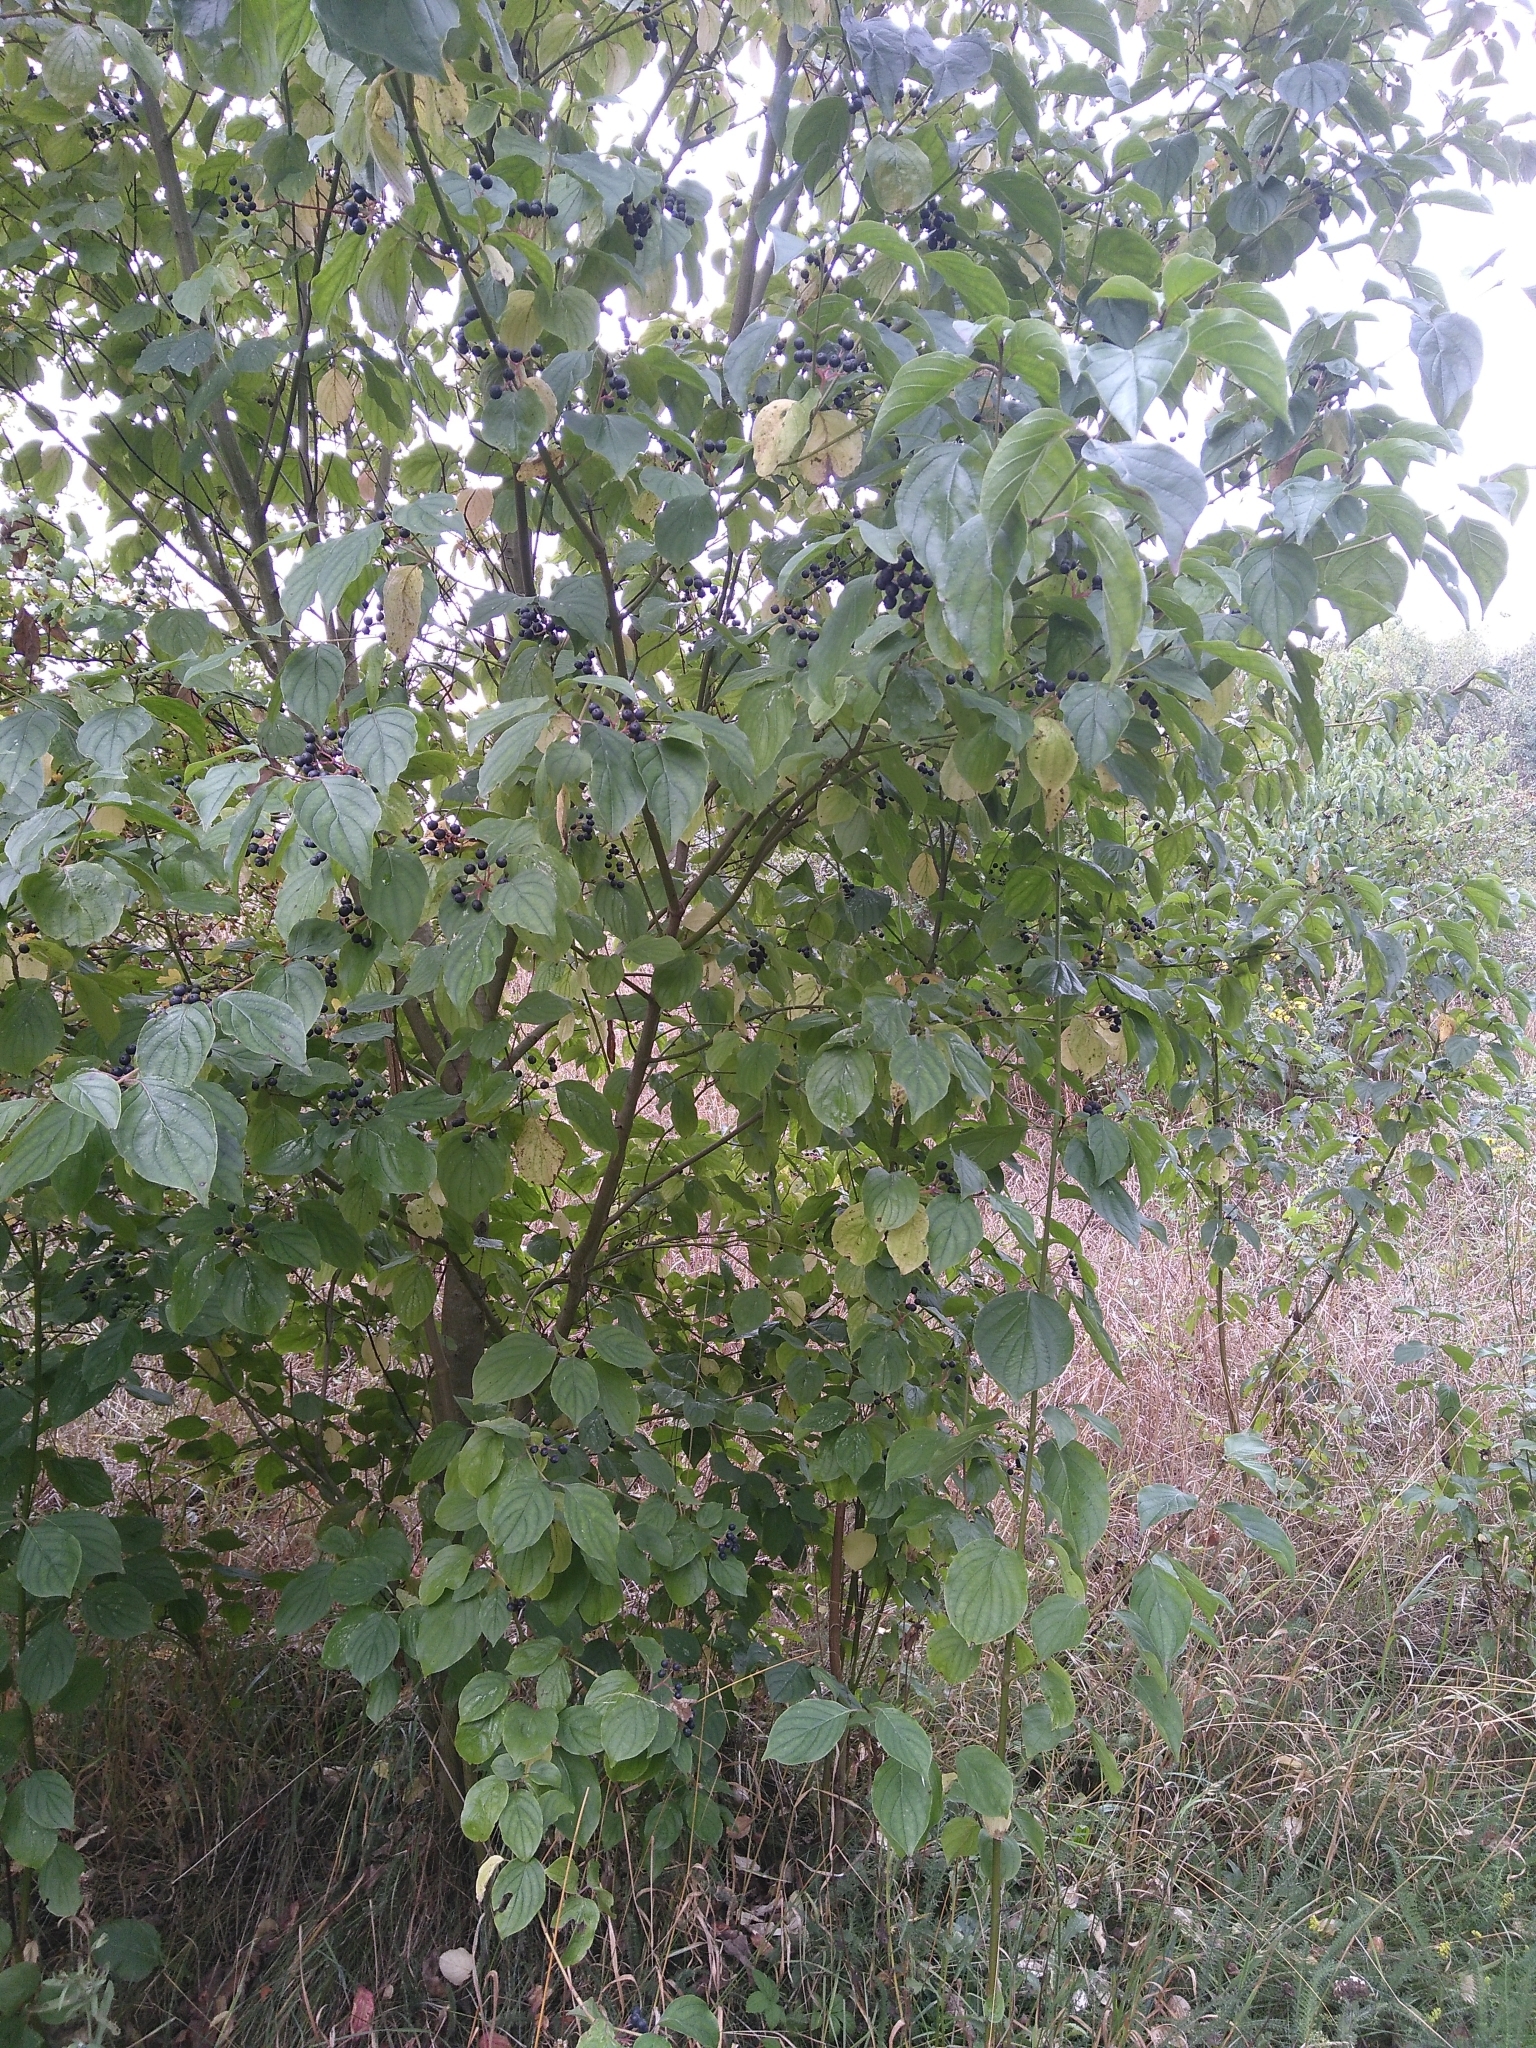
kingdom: Plantae
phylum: Tracheophyta
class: Magnoliopsida
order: Cornales
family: Cornaceae
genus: Cornus
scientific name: Cornus sanguinea
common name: Dogwood
